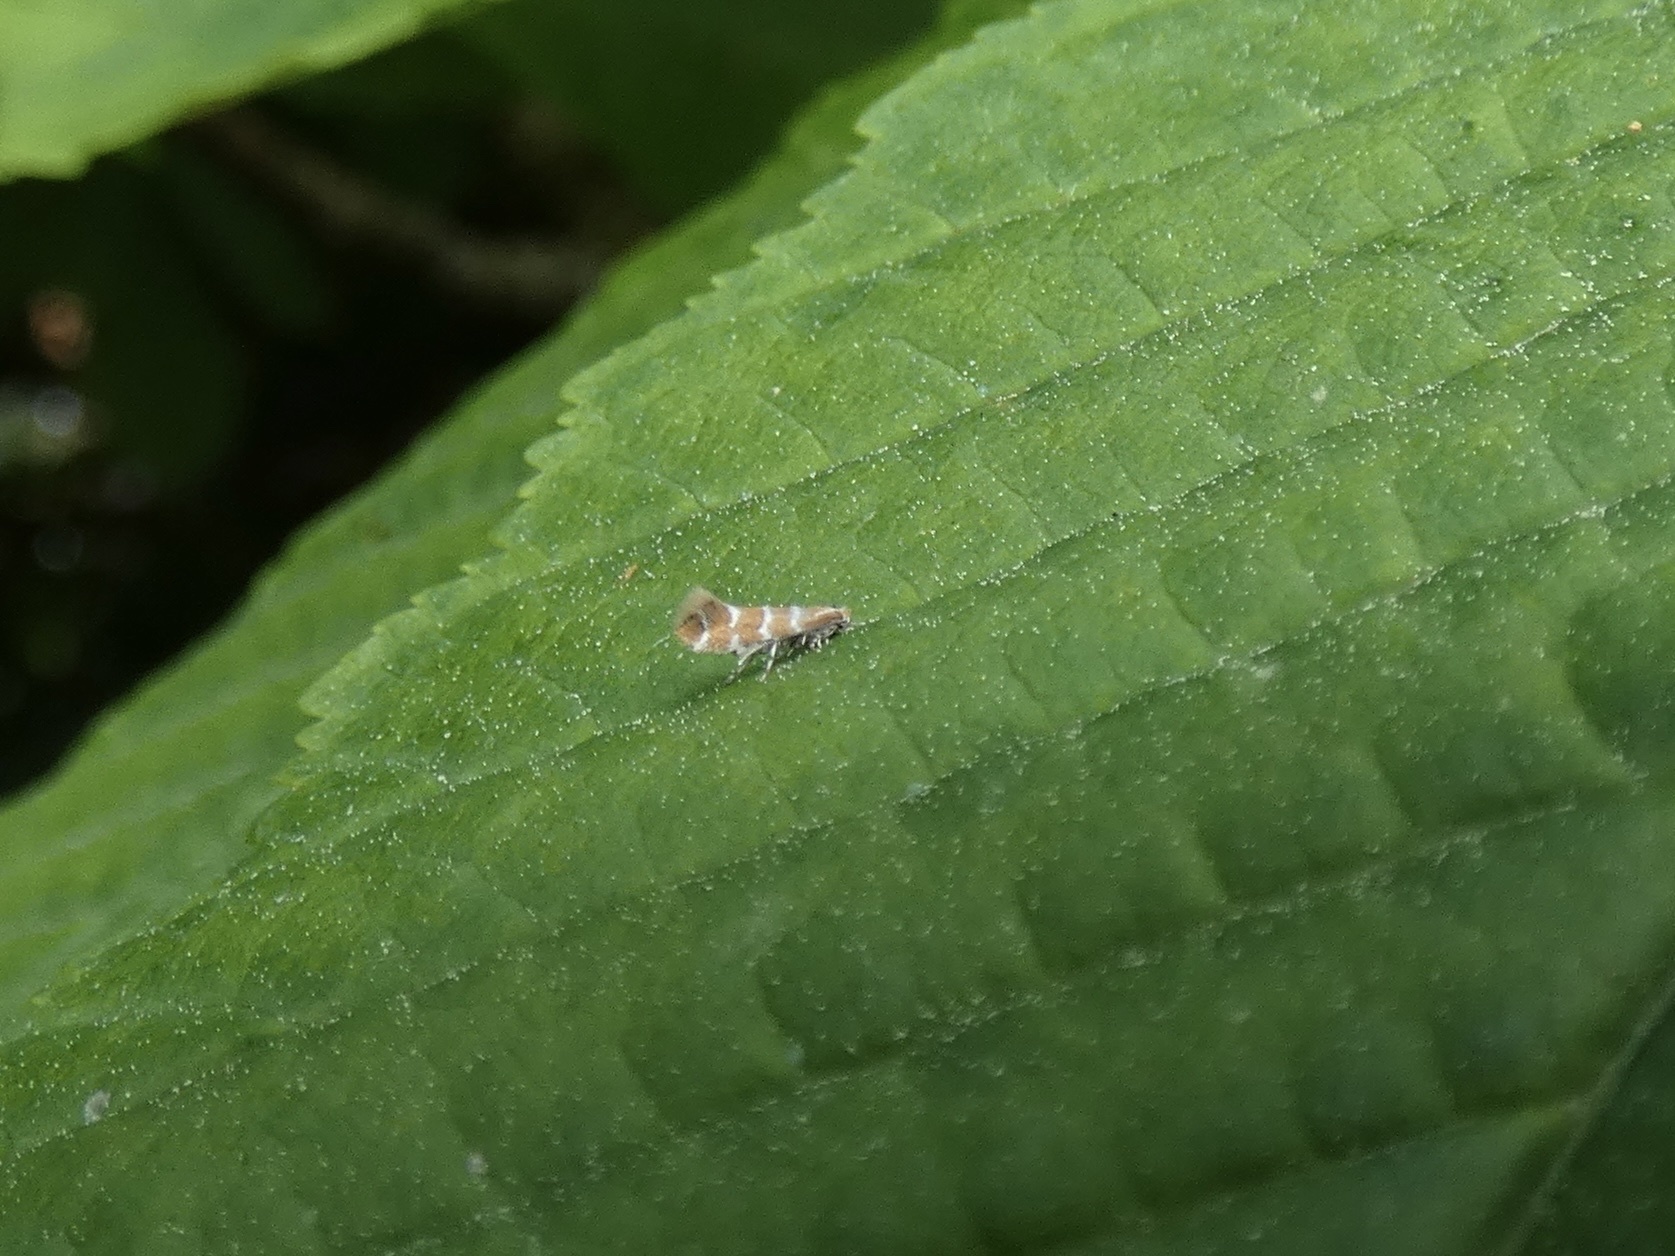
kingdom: Animalia
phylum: Arthropoda
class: Insecta
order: Lepidoptera
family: Gracillariidae
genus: Cameraria
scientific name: Cameraria ohridella
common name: Horse-chestnut leaf-miner
